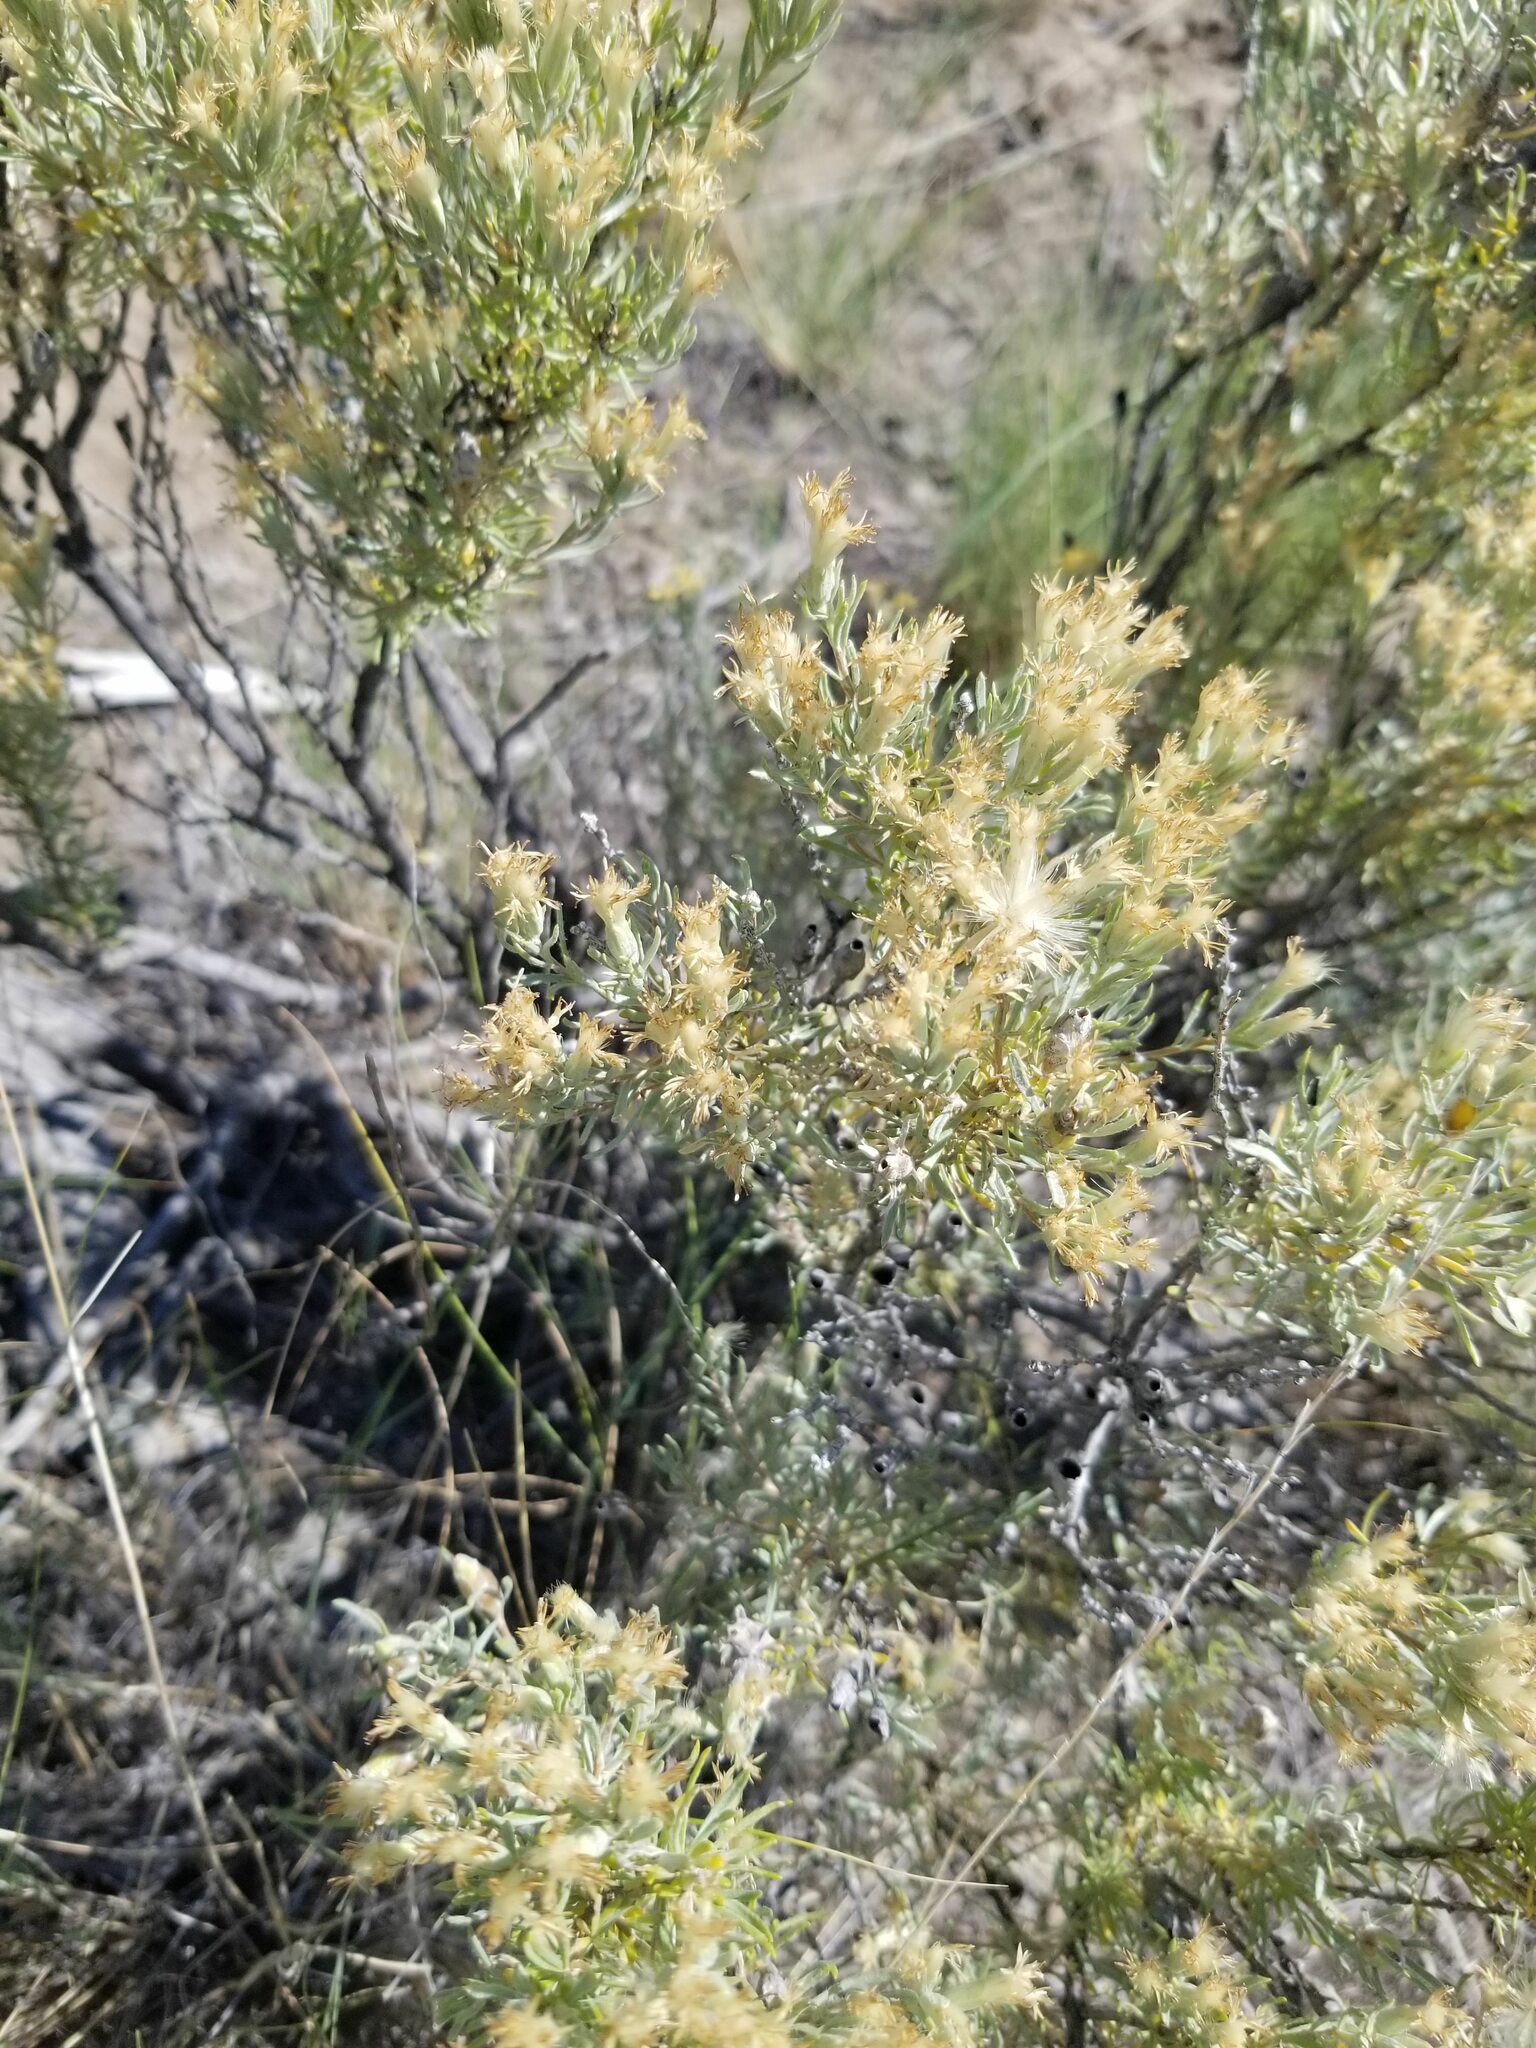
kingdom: Plantae
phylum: Tracheophyta
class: Magnoliopsida
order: Asterales
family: Asteraceae
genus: Tetradymia
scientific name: Tetradymia canescens
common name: Spineless horsebrush
